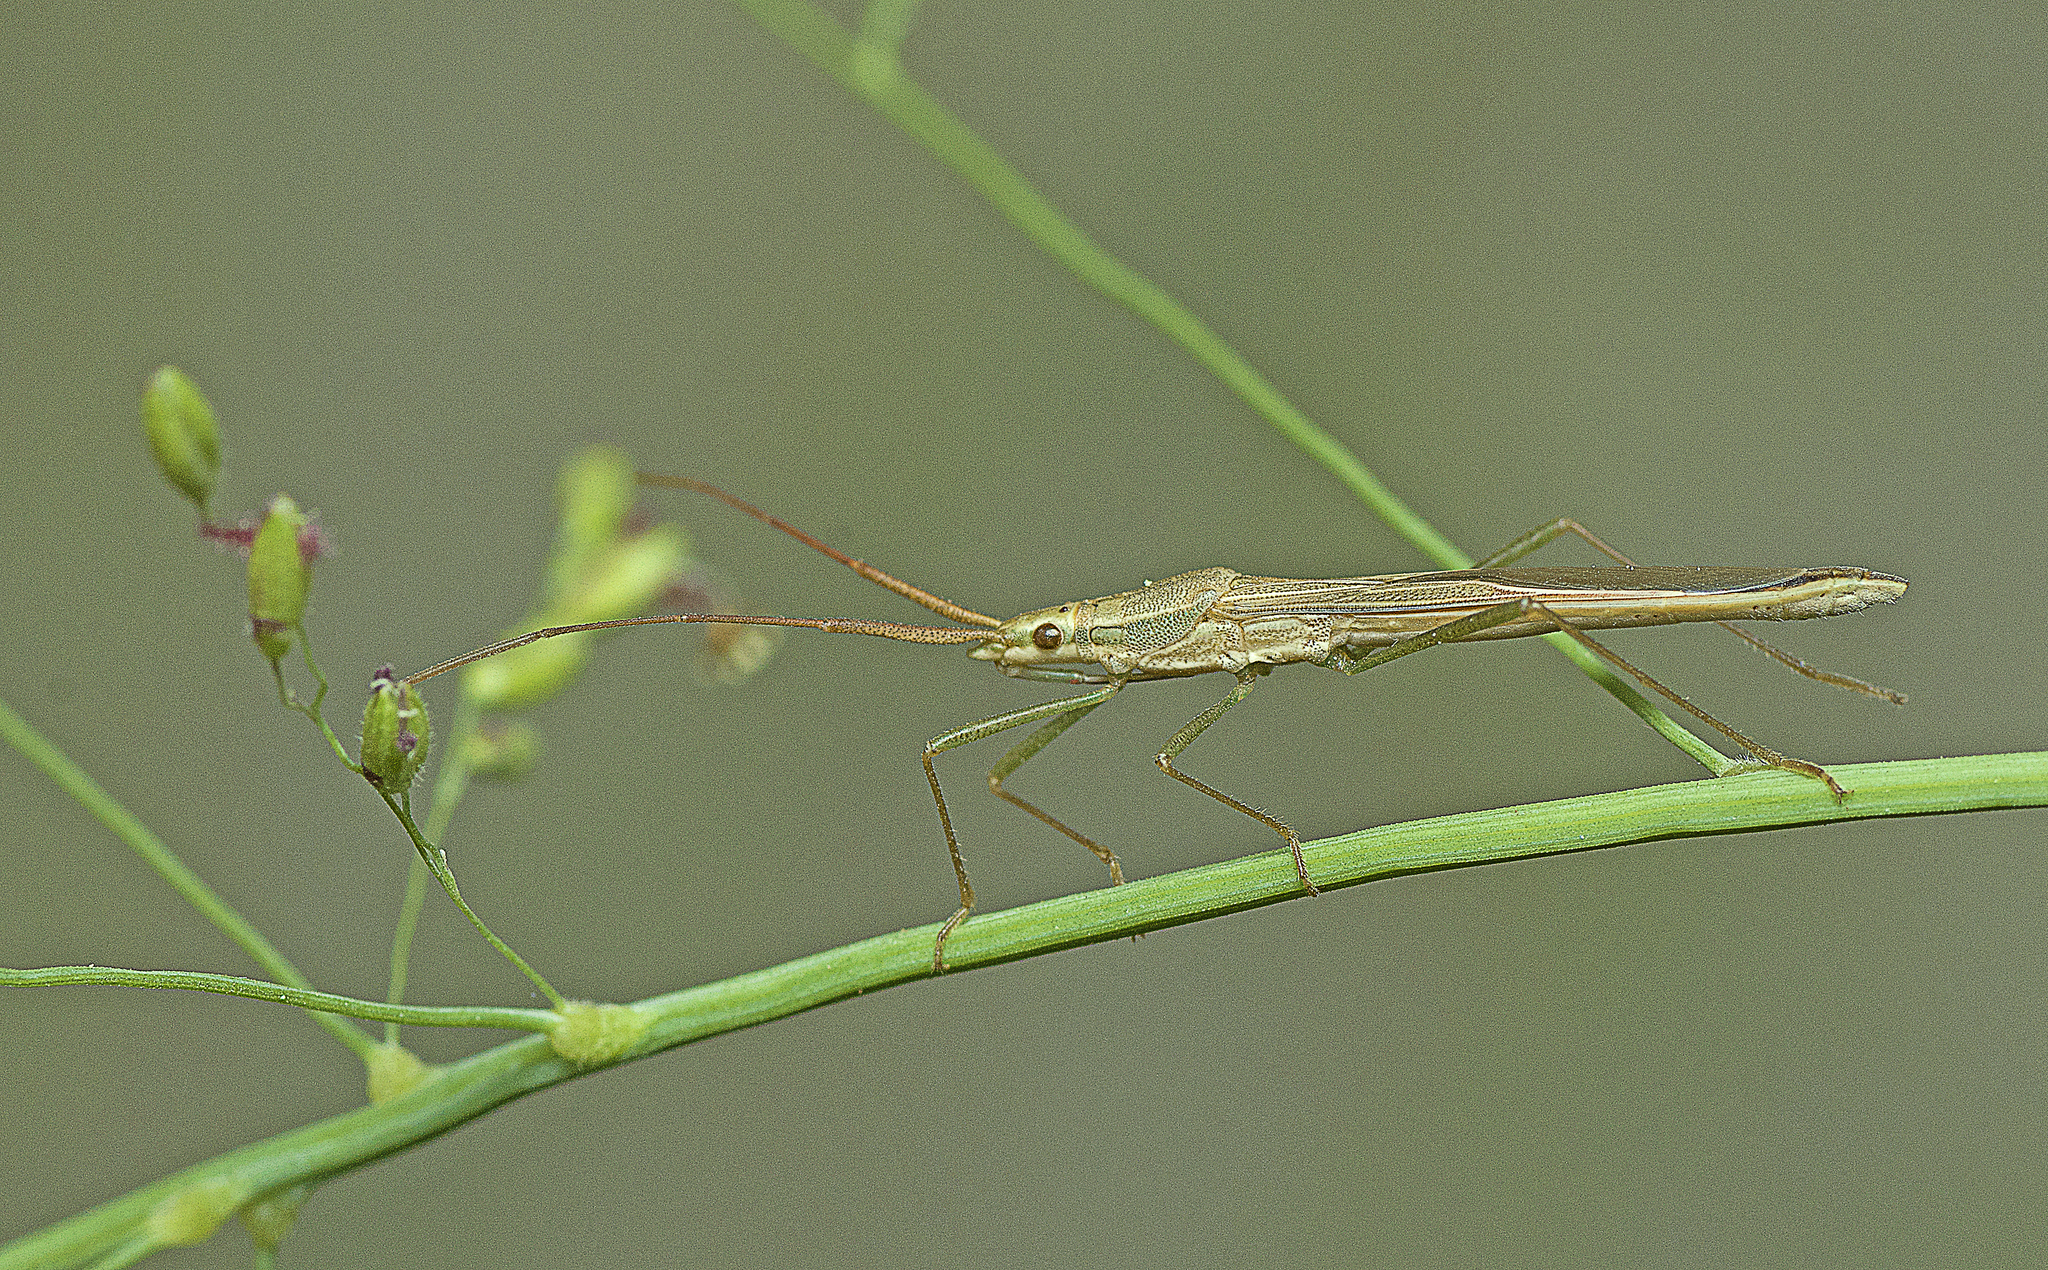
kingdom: Animalia
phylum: Arthropoda
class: Insecta
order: Hemiptera
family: Alydidae
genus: Mutusca
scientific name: Mutusca brevicornis
